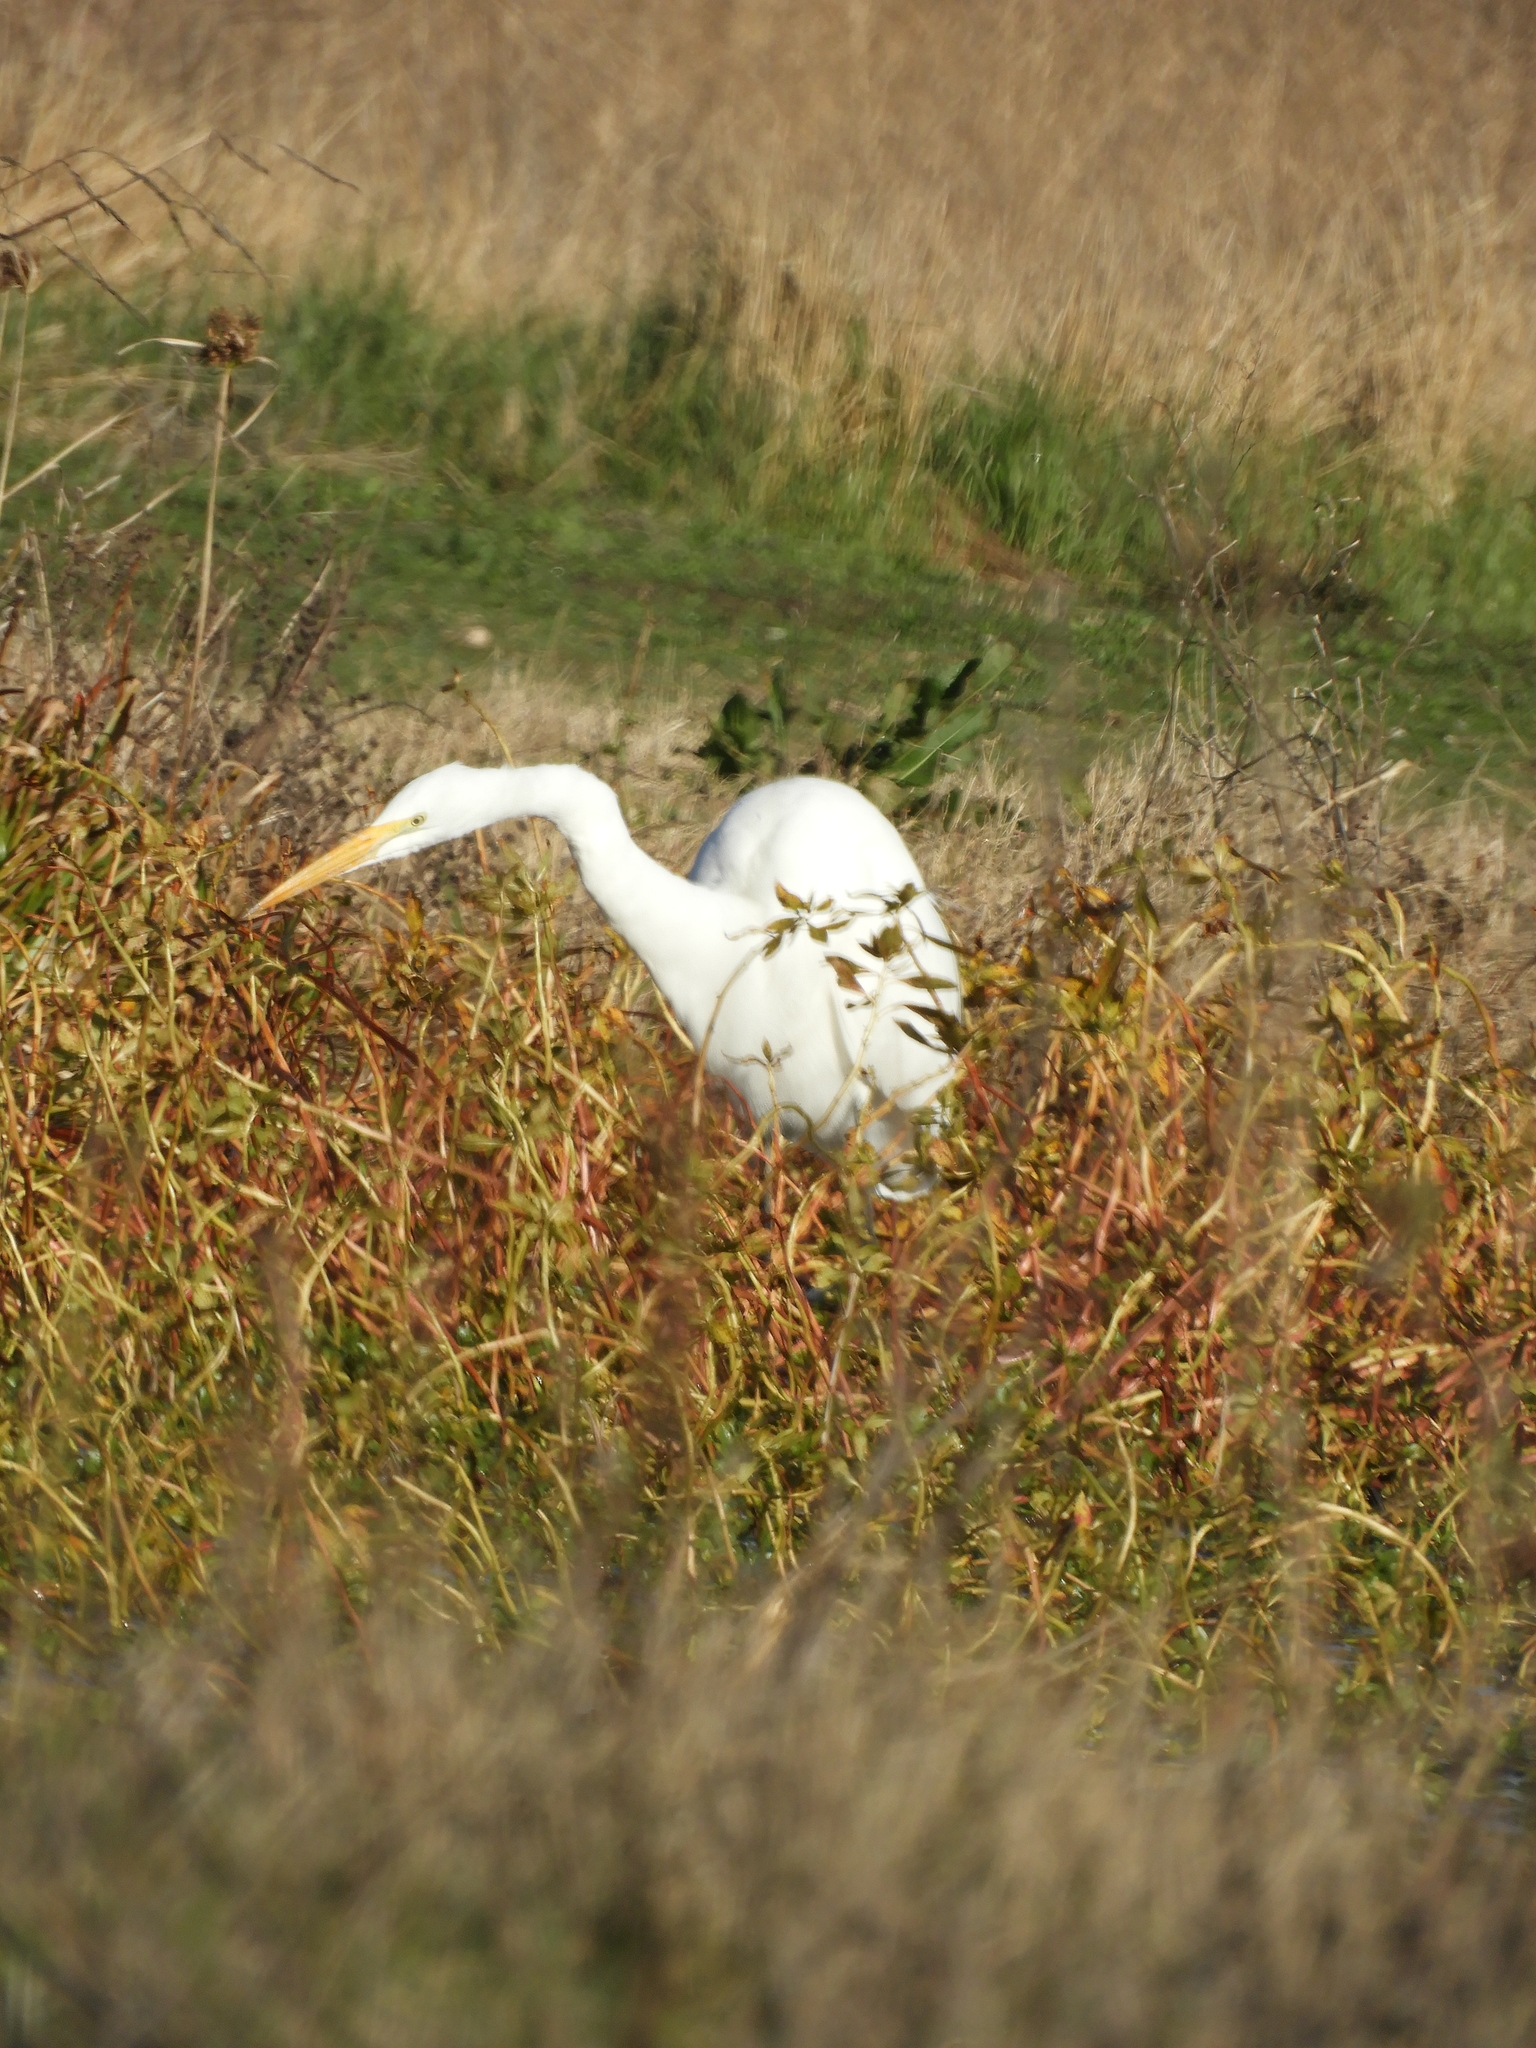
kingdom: Animalia
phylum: Chordata
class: Aves
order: Pelecaniformes
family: Ardeidae
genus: Ardea
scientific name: Ardea alba
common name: Great egret
